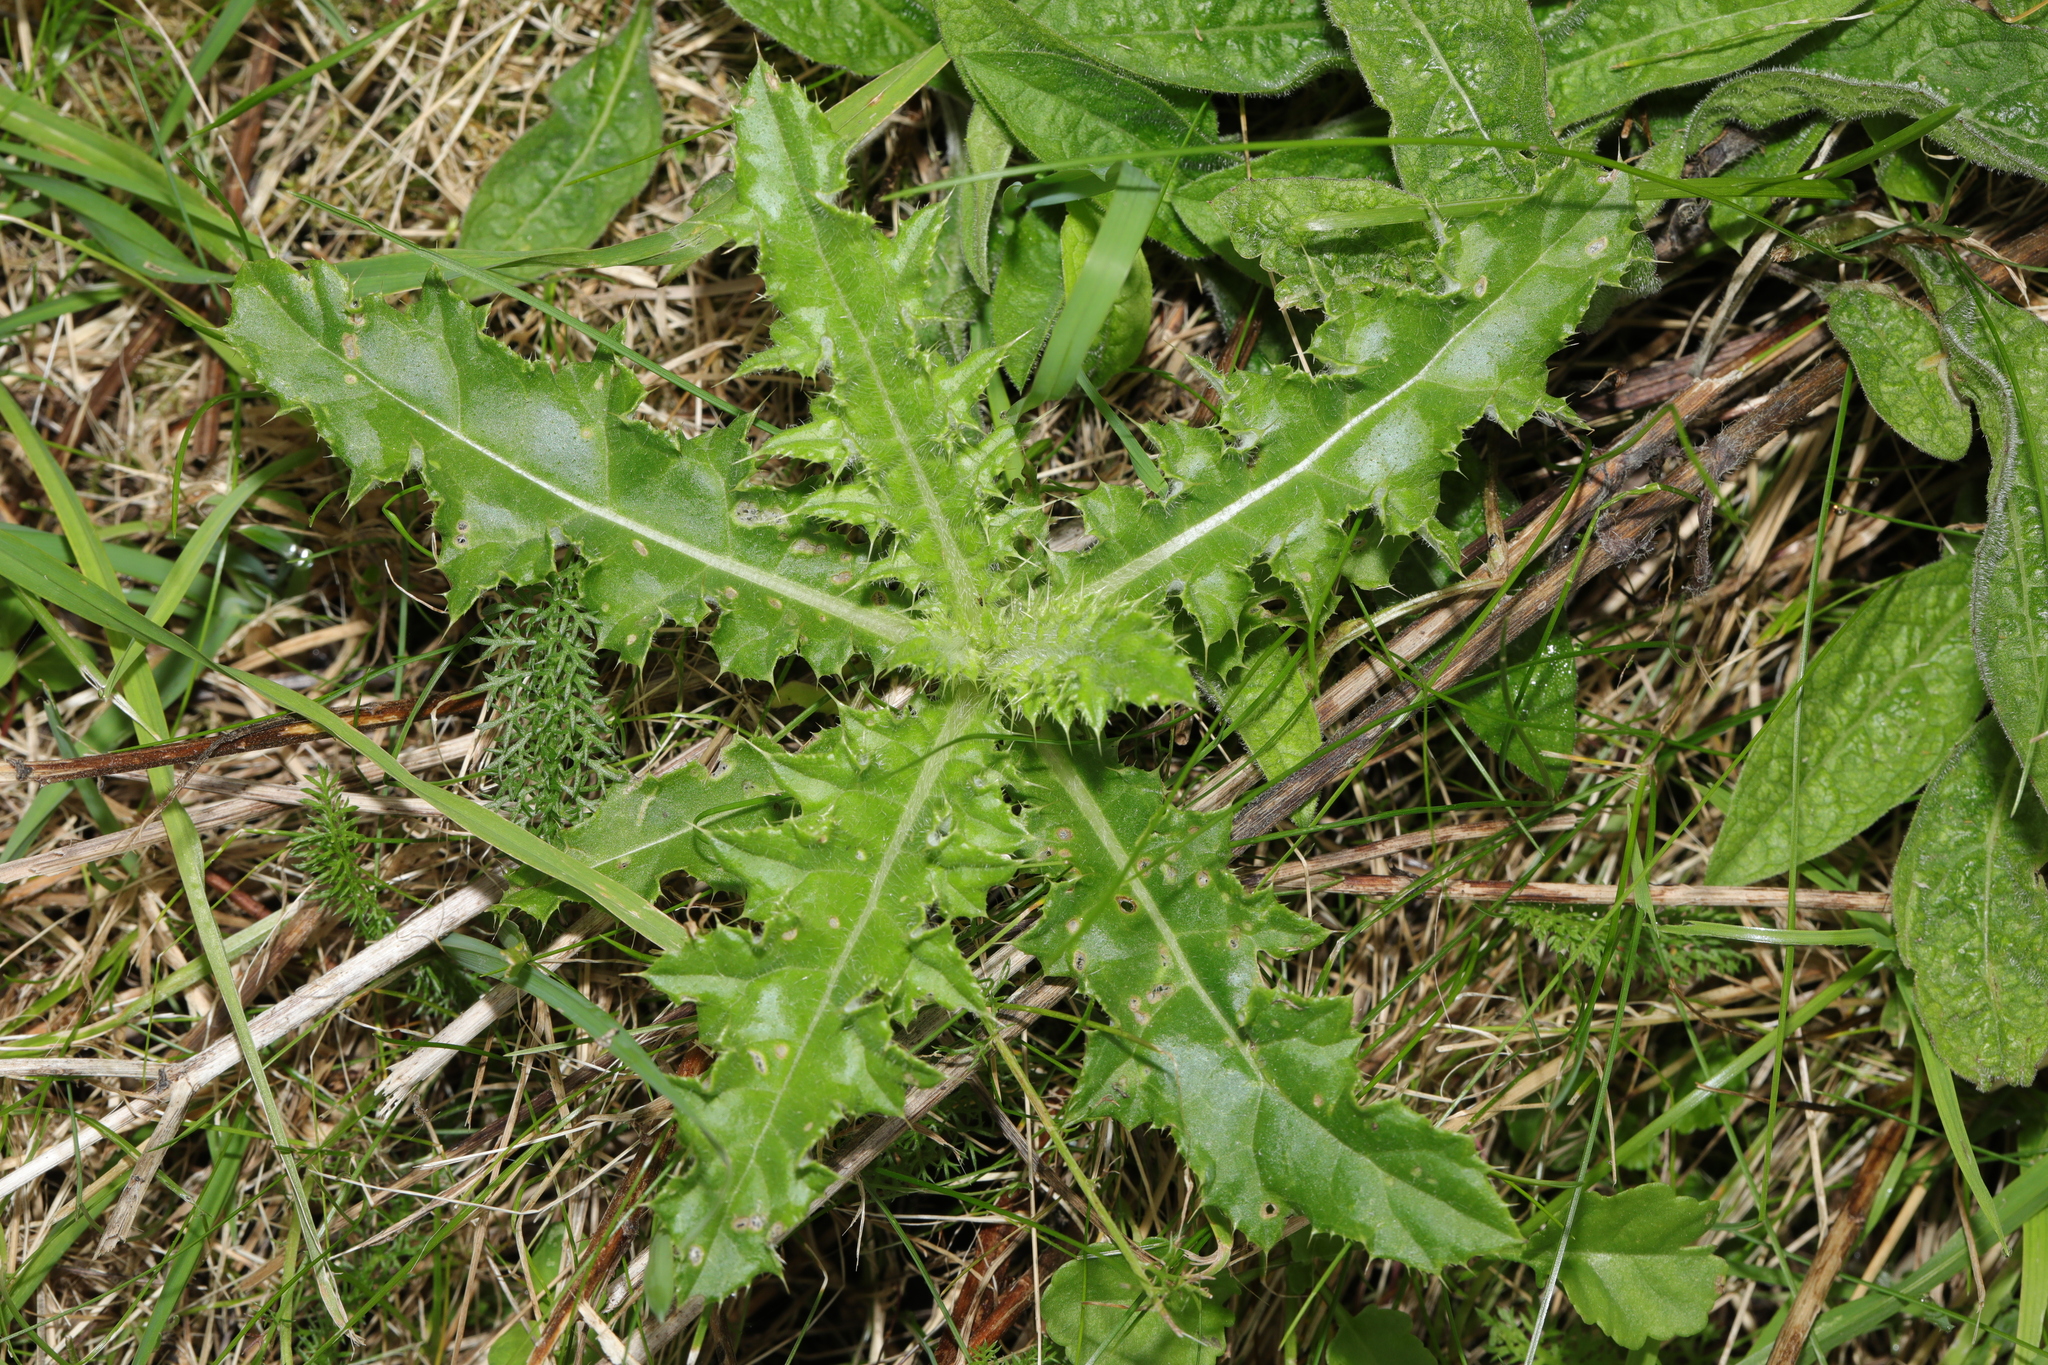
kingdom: Plantae
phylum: Tracheophyta
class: Magnoliopsida
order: Asterales
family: Asteraceae
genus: Cirsium
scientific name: Cirsium arvense
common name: Creeping thistle
